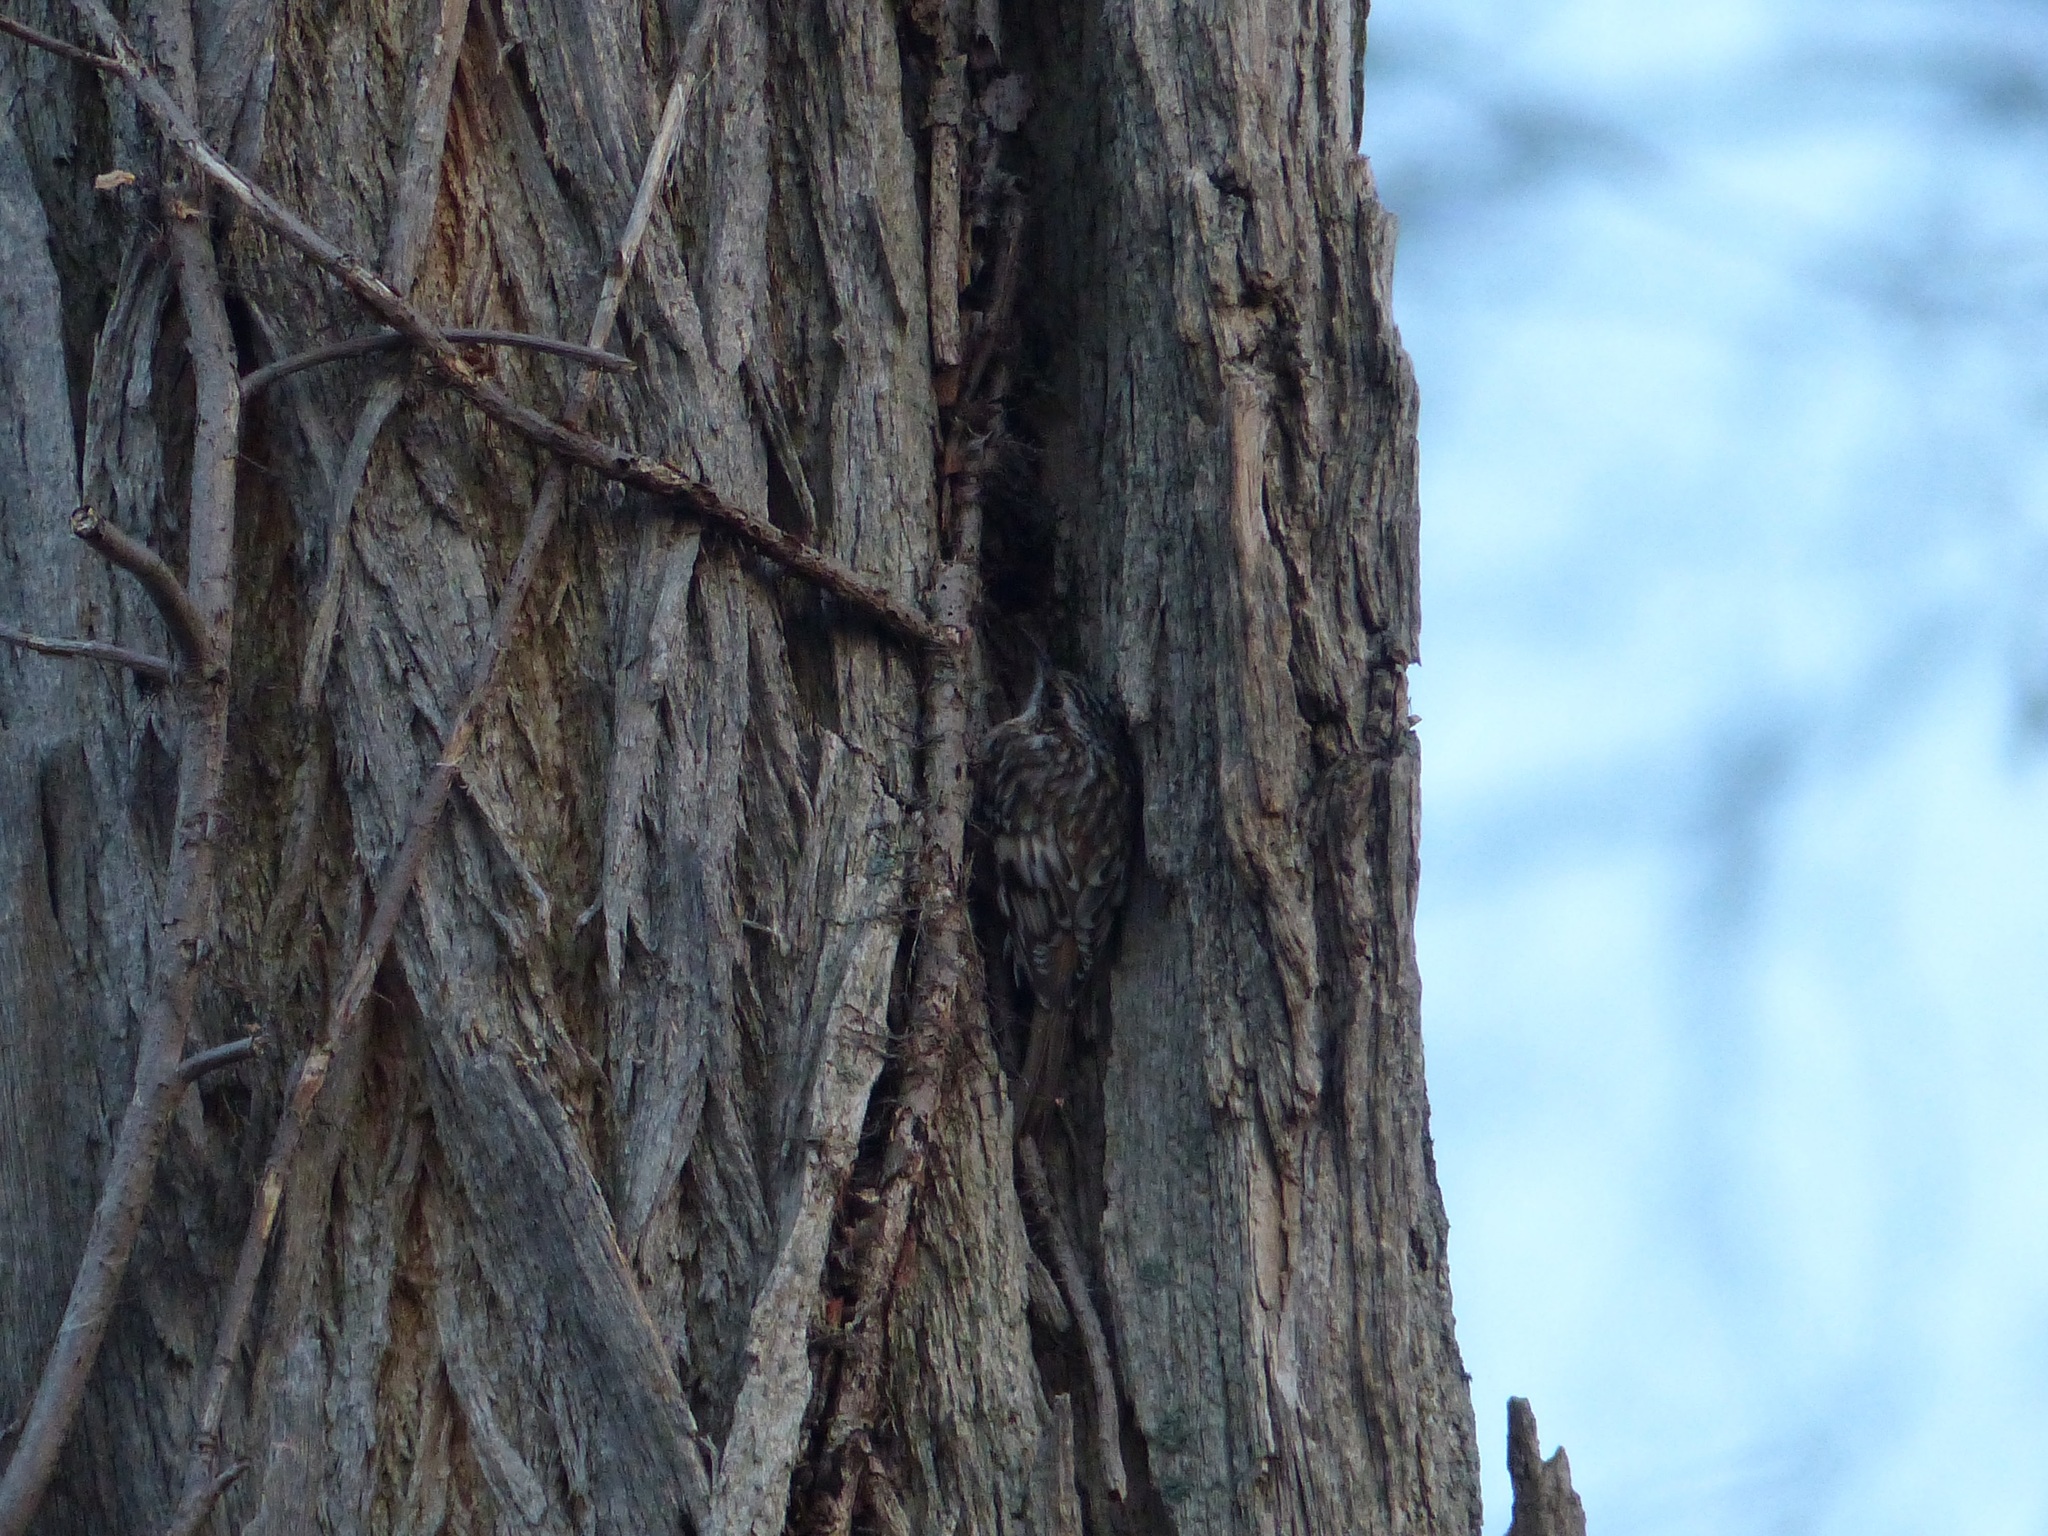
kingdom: Animalia
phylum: Chordata
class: Aves
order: Passeriformes
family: Certhiidae
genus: Certhia
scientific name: Certhia americana
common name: Brown creeper
